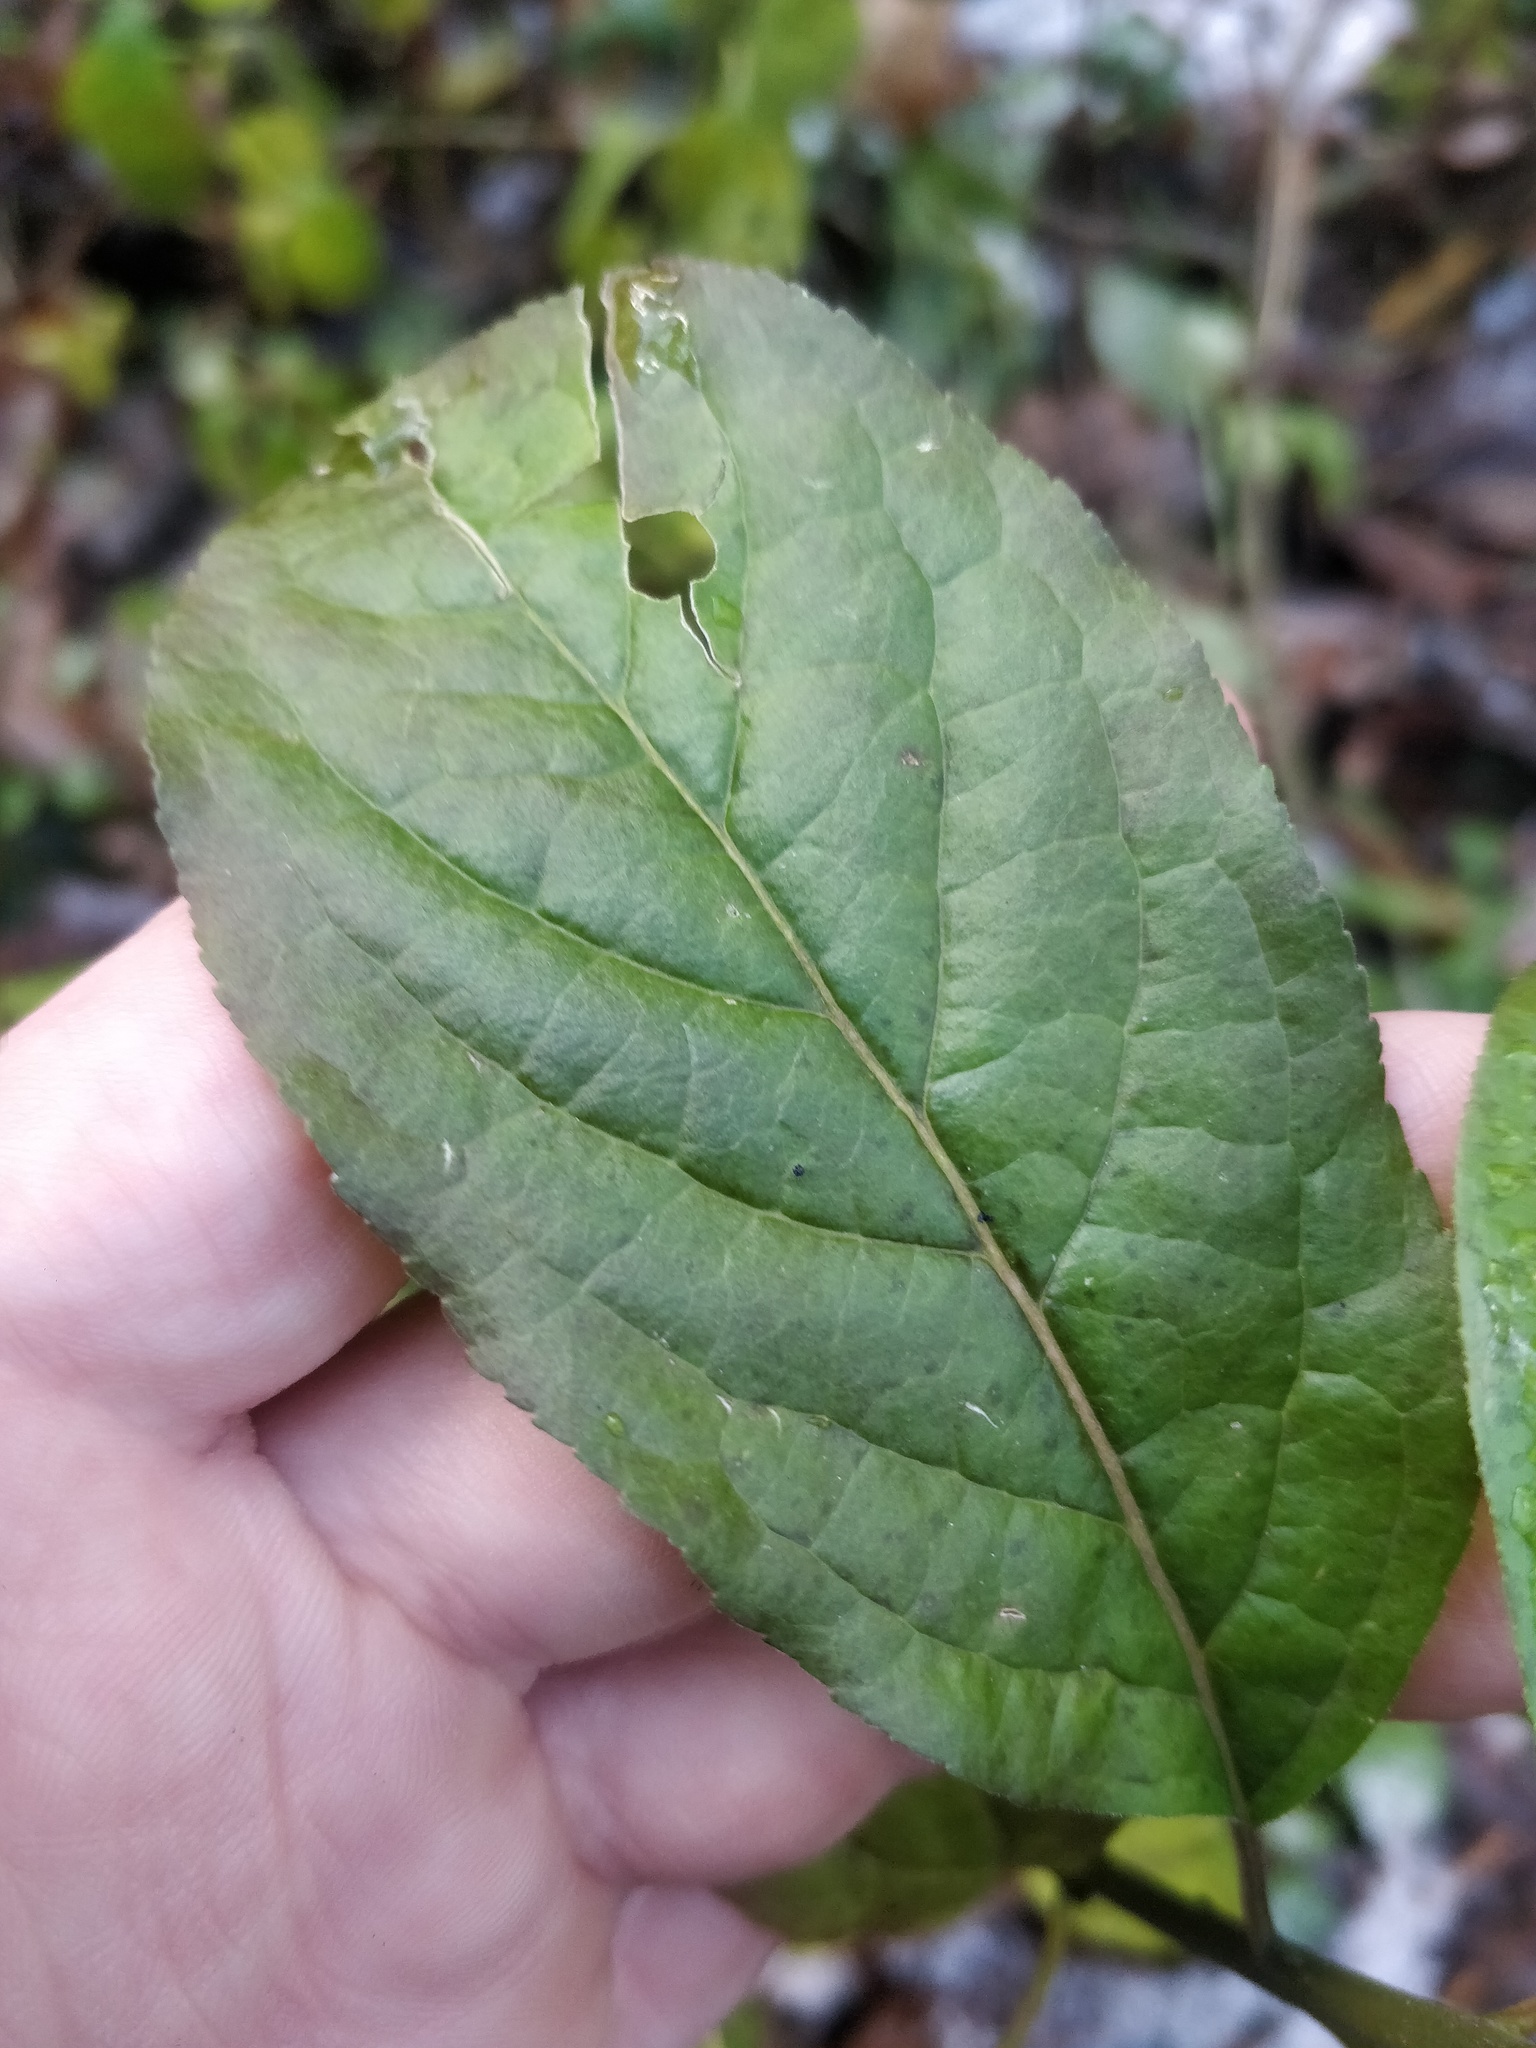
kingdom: Plantae
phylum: Tracheophyta
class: Magnoliopsida
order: Celastrales
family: Celastraceae
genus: Euonymus
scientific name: Euonymus europaeus
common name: Spindle
